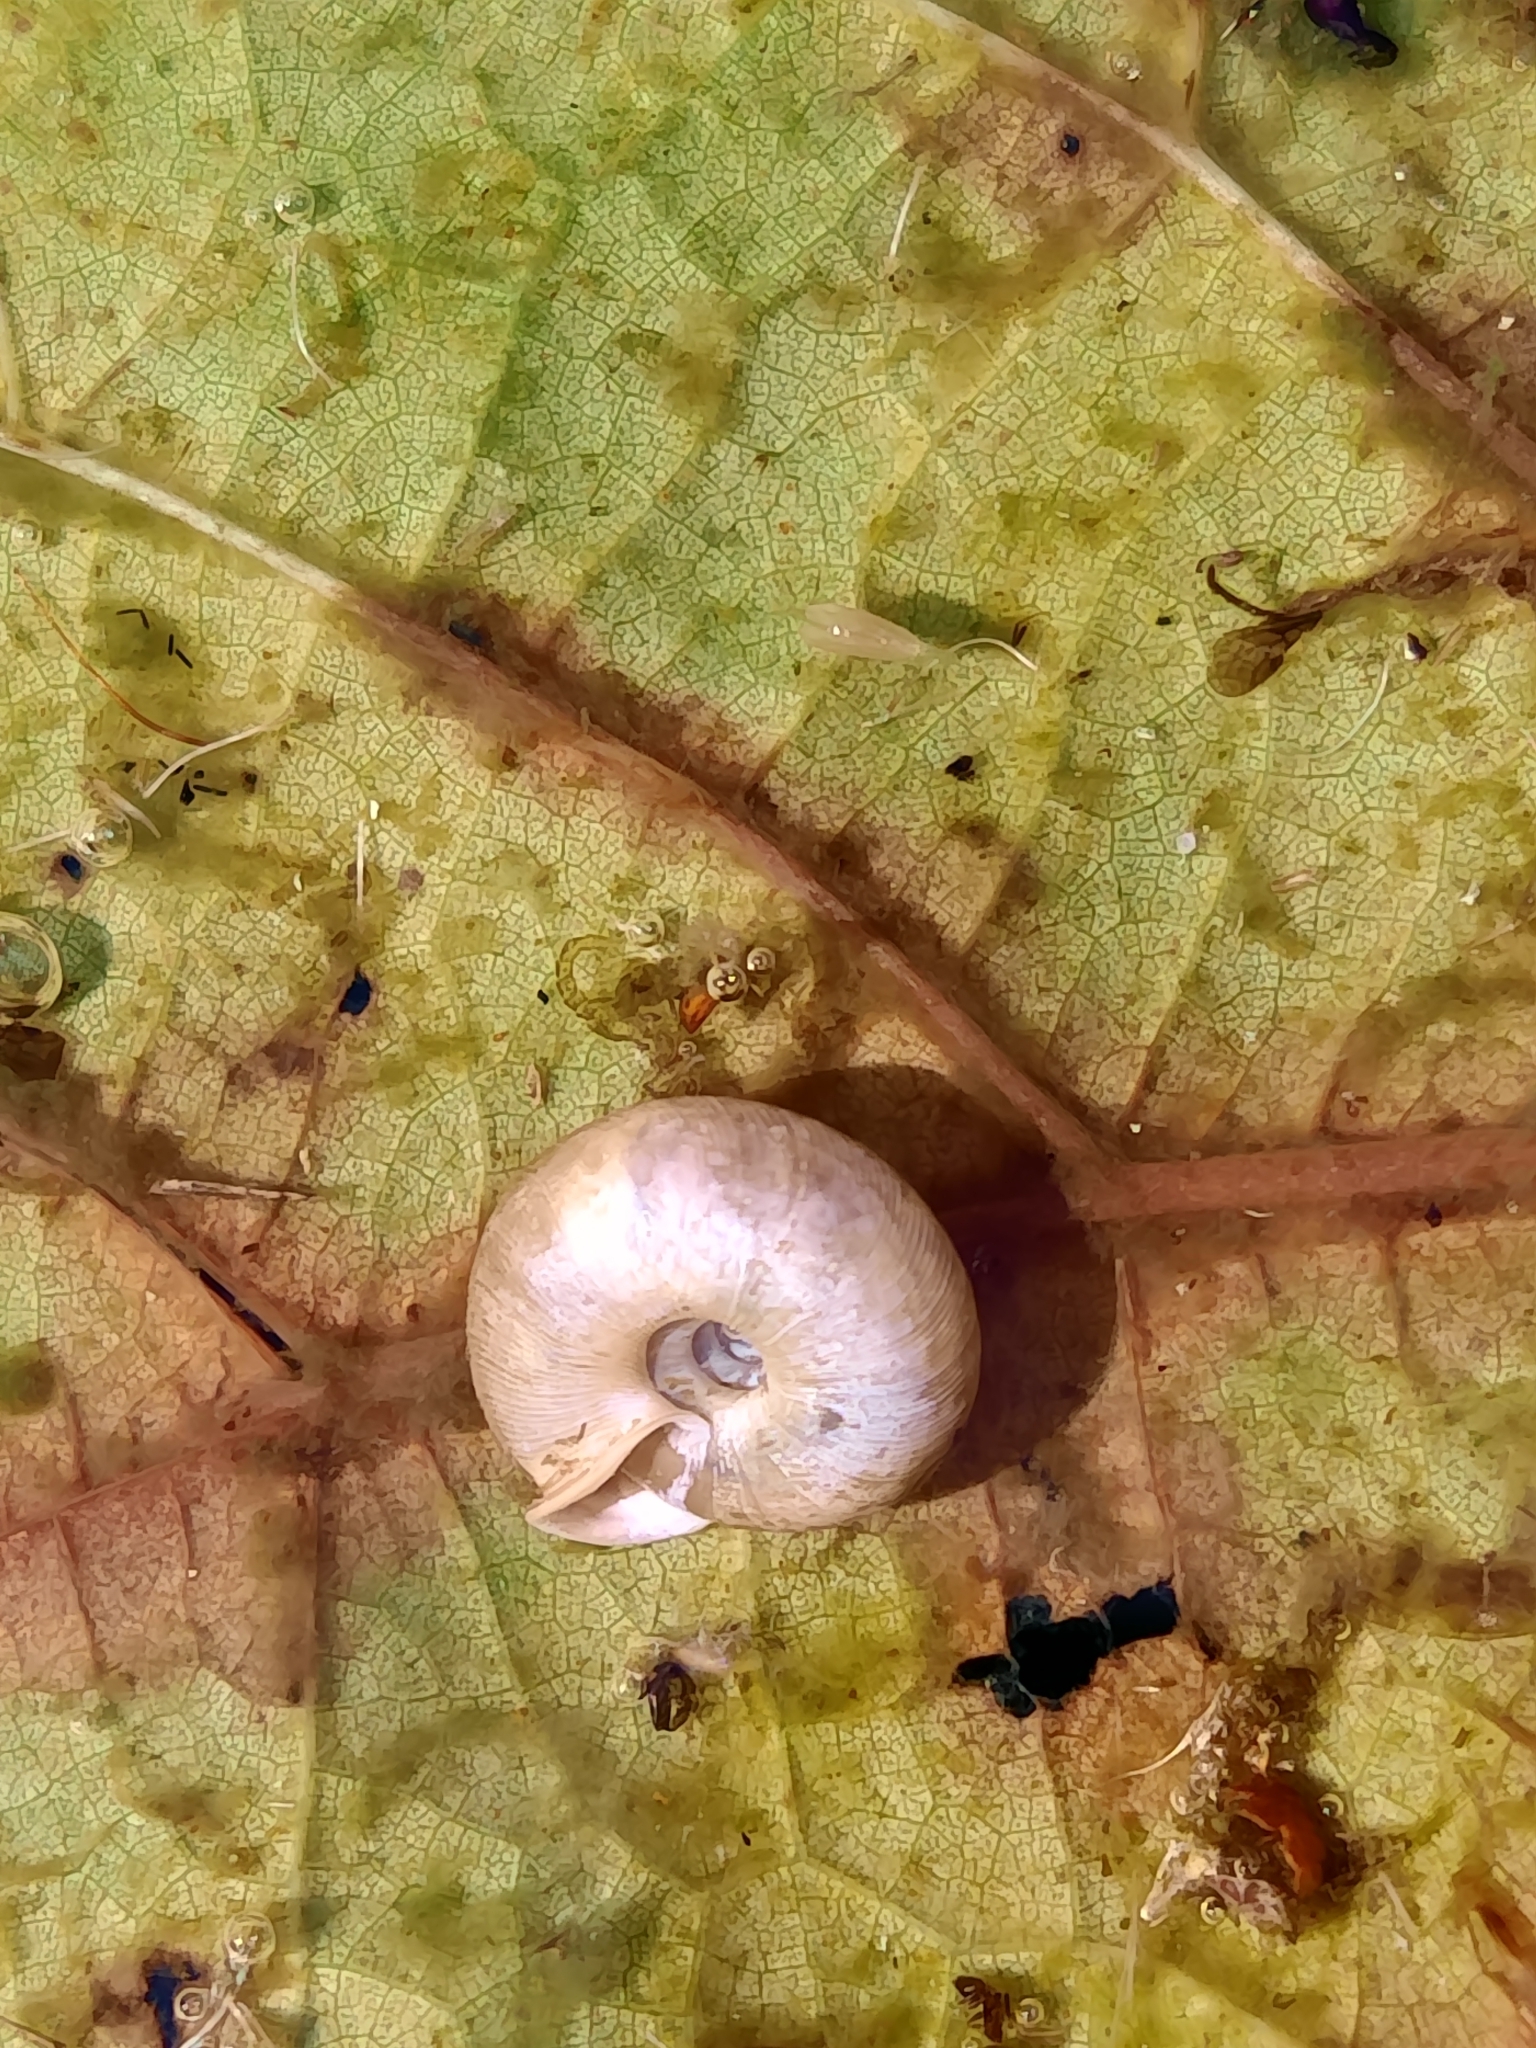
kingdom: Animalia
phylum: Mollusca
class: Gastropoda
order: Stylommatophora
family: Trissexodontidae
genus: Oestophora
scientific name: Oestophora barbella
